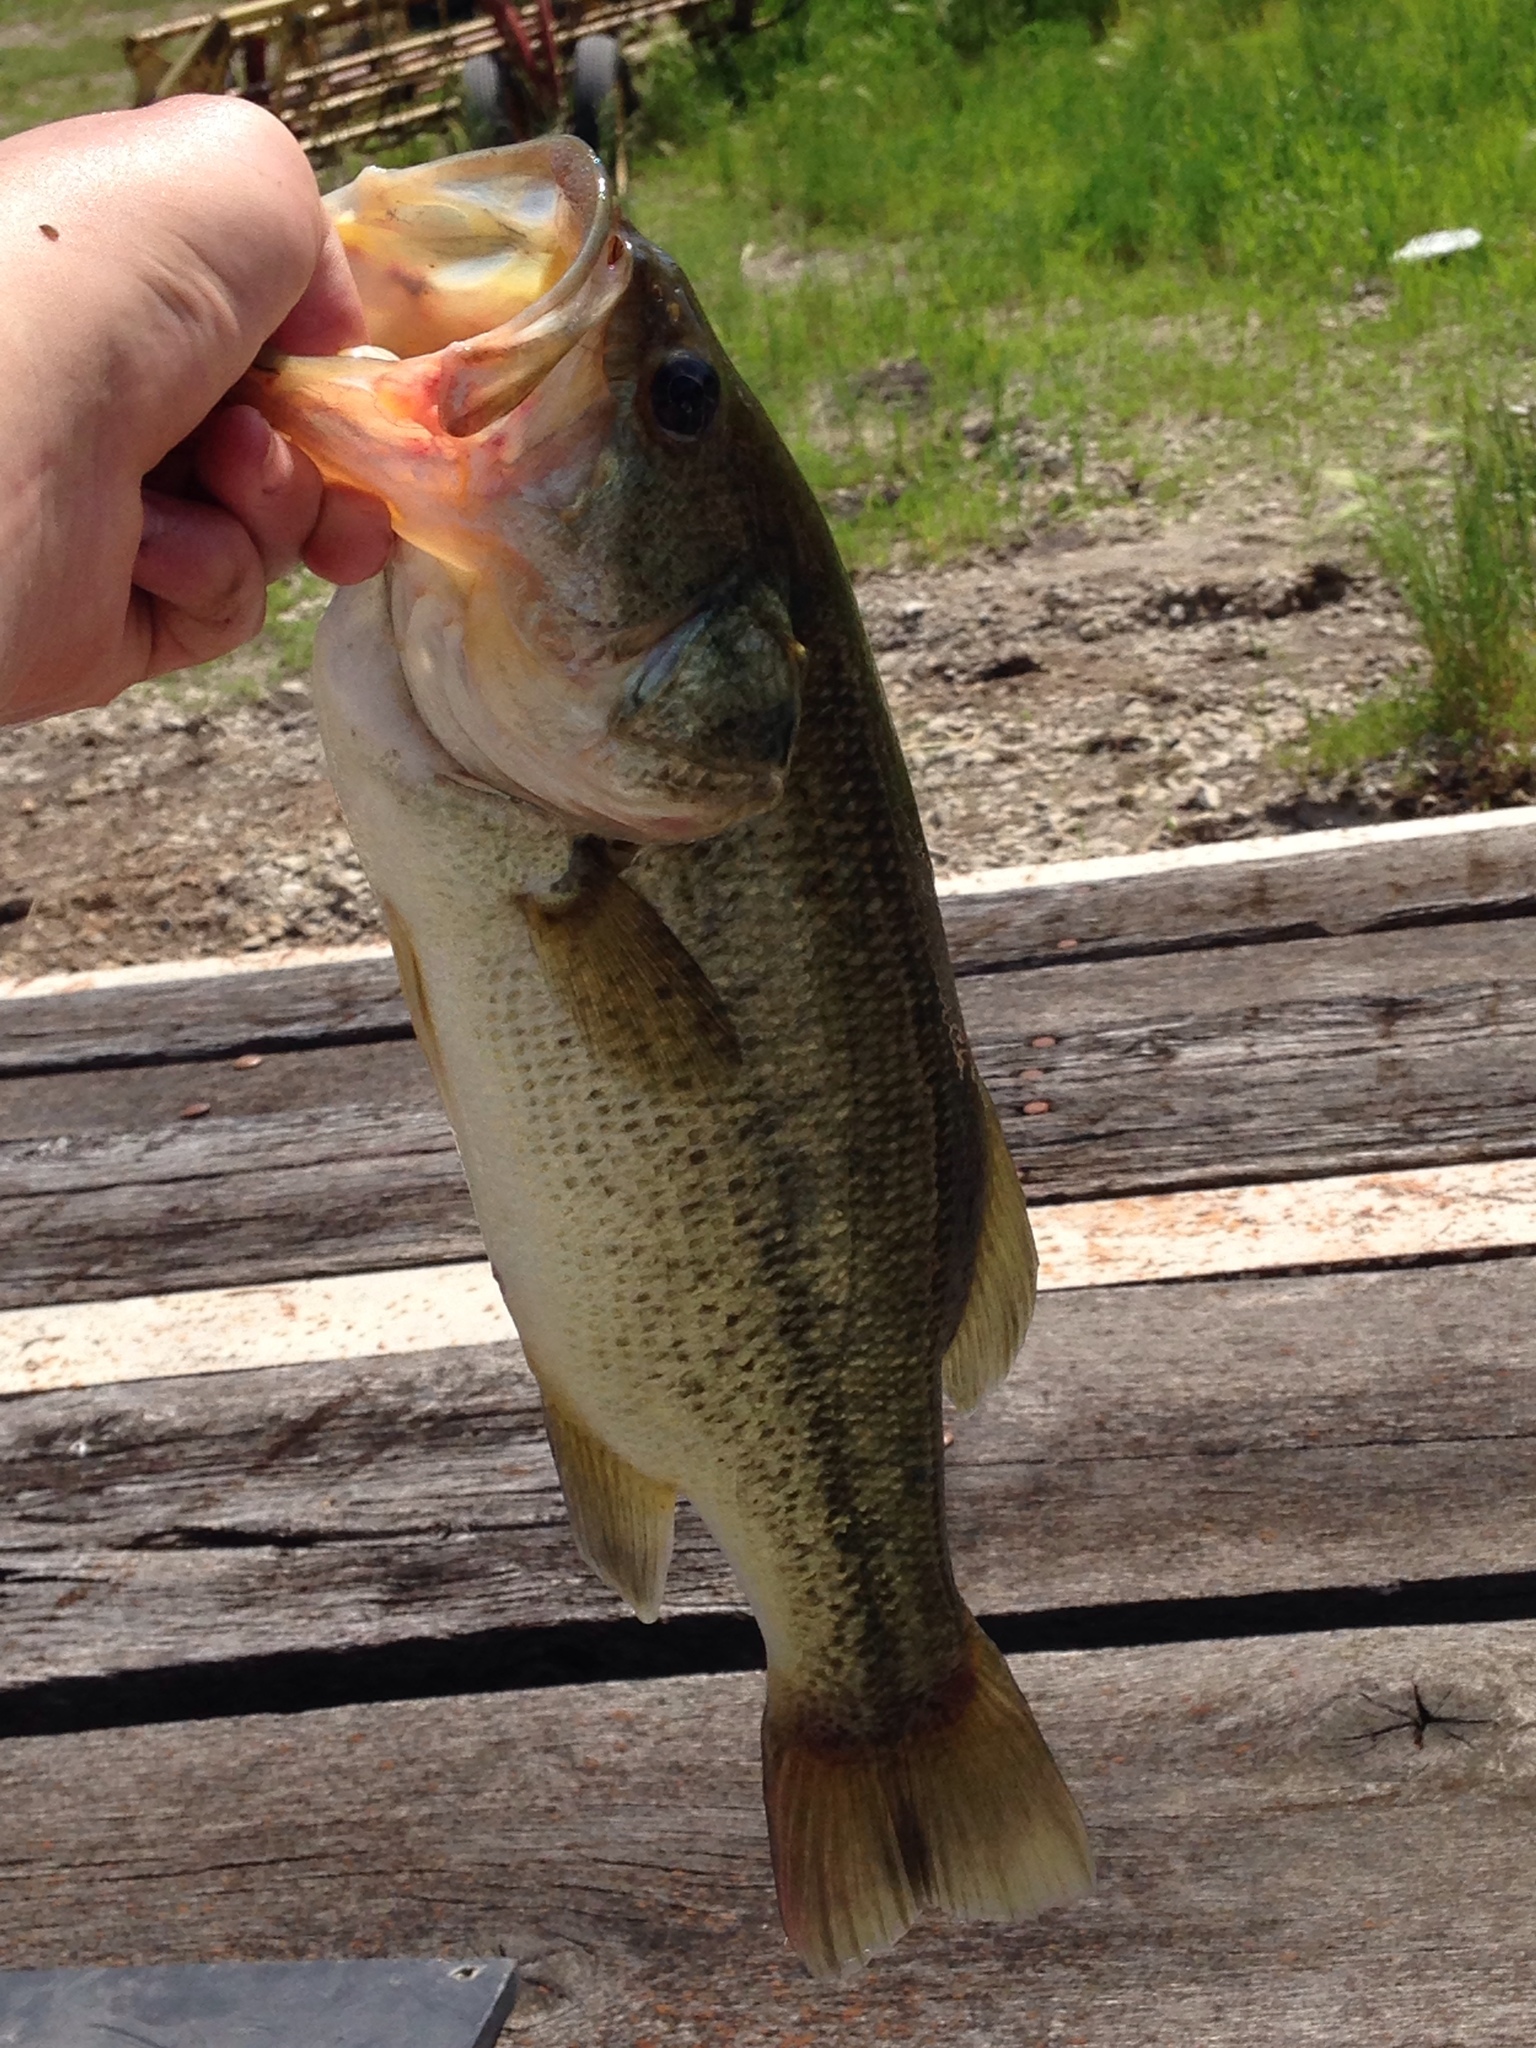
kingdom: Animalia
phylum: Chordata
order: Perciformes
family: Centrarchidae
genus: Micropterus
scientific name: Micropterus
